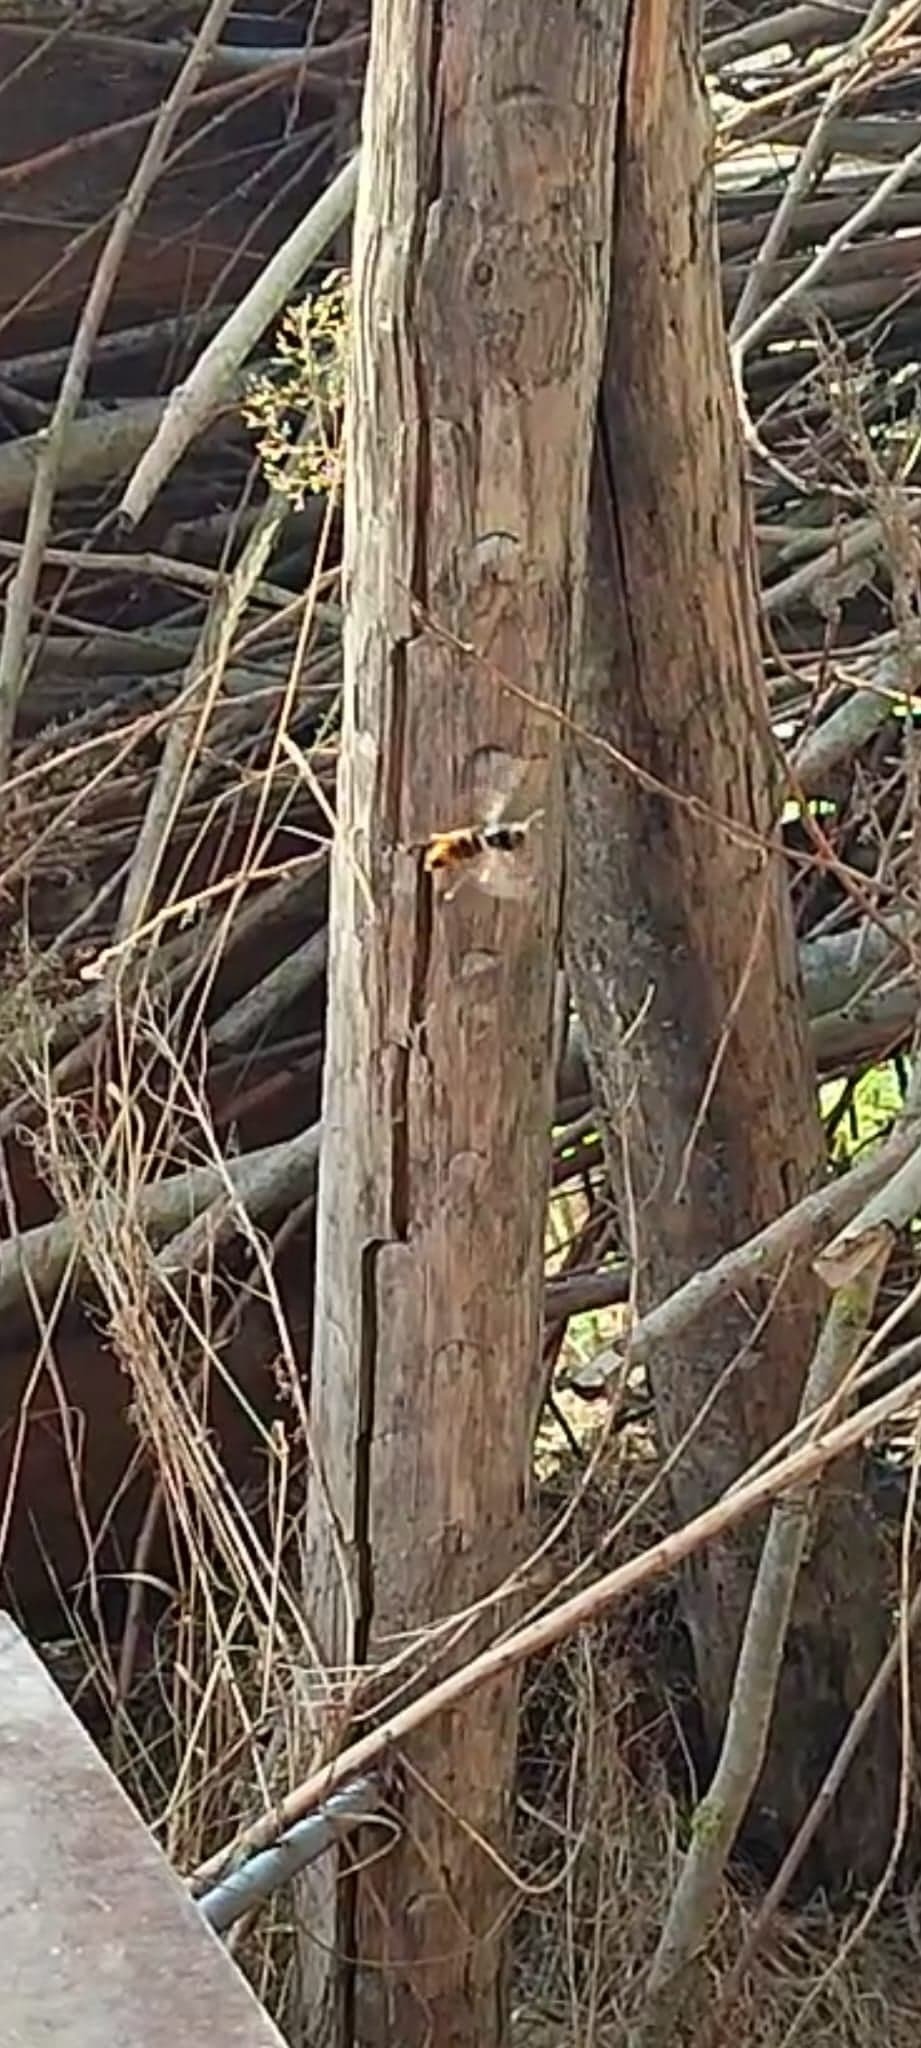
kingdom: Animalia
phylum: Arthropoda
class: Insecta
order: Hymenoptera
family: Vespidae
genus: Vespa
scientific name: Vespa velutina
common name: Asian hornet
